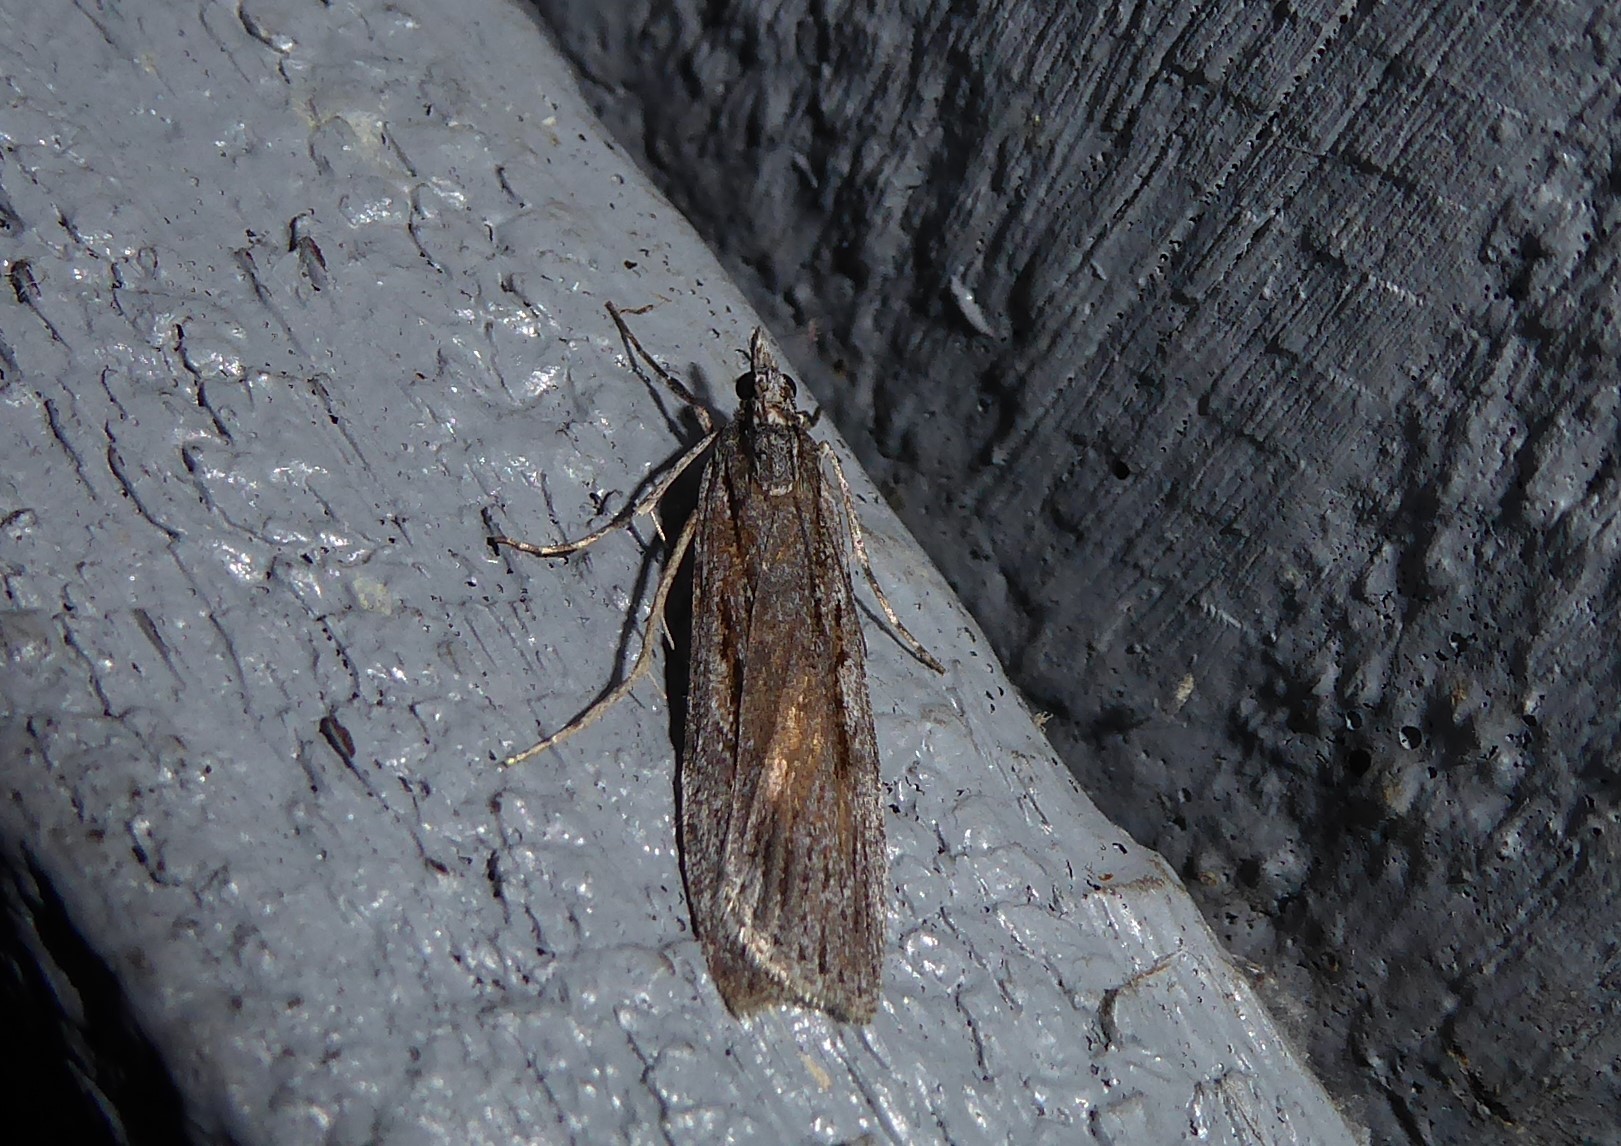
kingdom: Animalia
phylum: Arthropoda
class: Insecta
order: Lepidoptera
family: Crambidae
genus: Scoparia
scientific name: Scoparia indistinctalis
